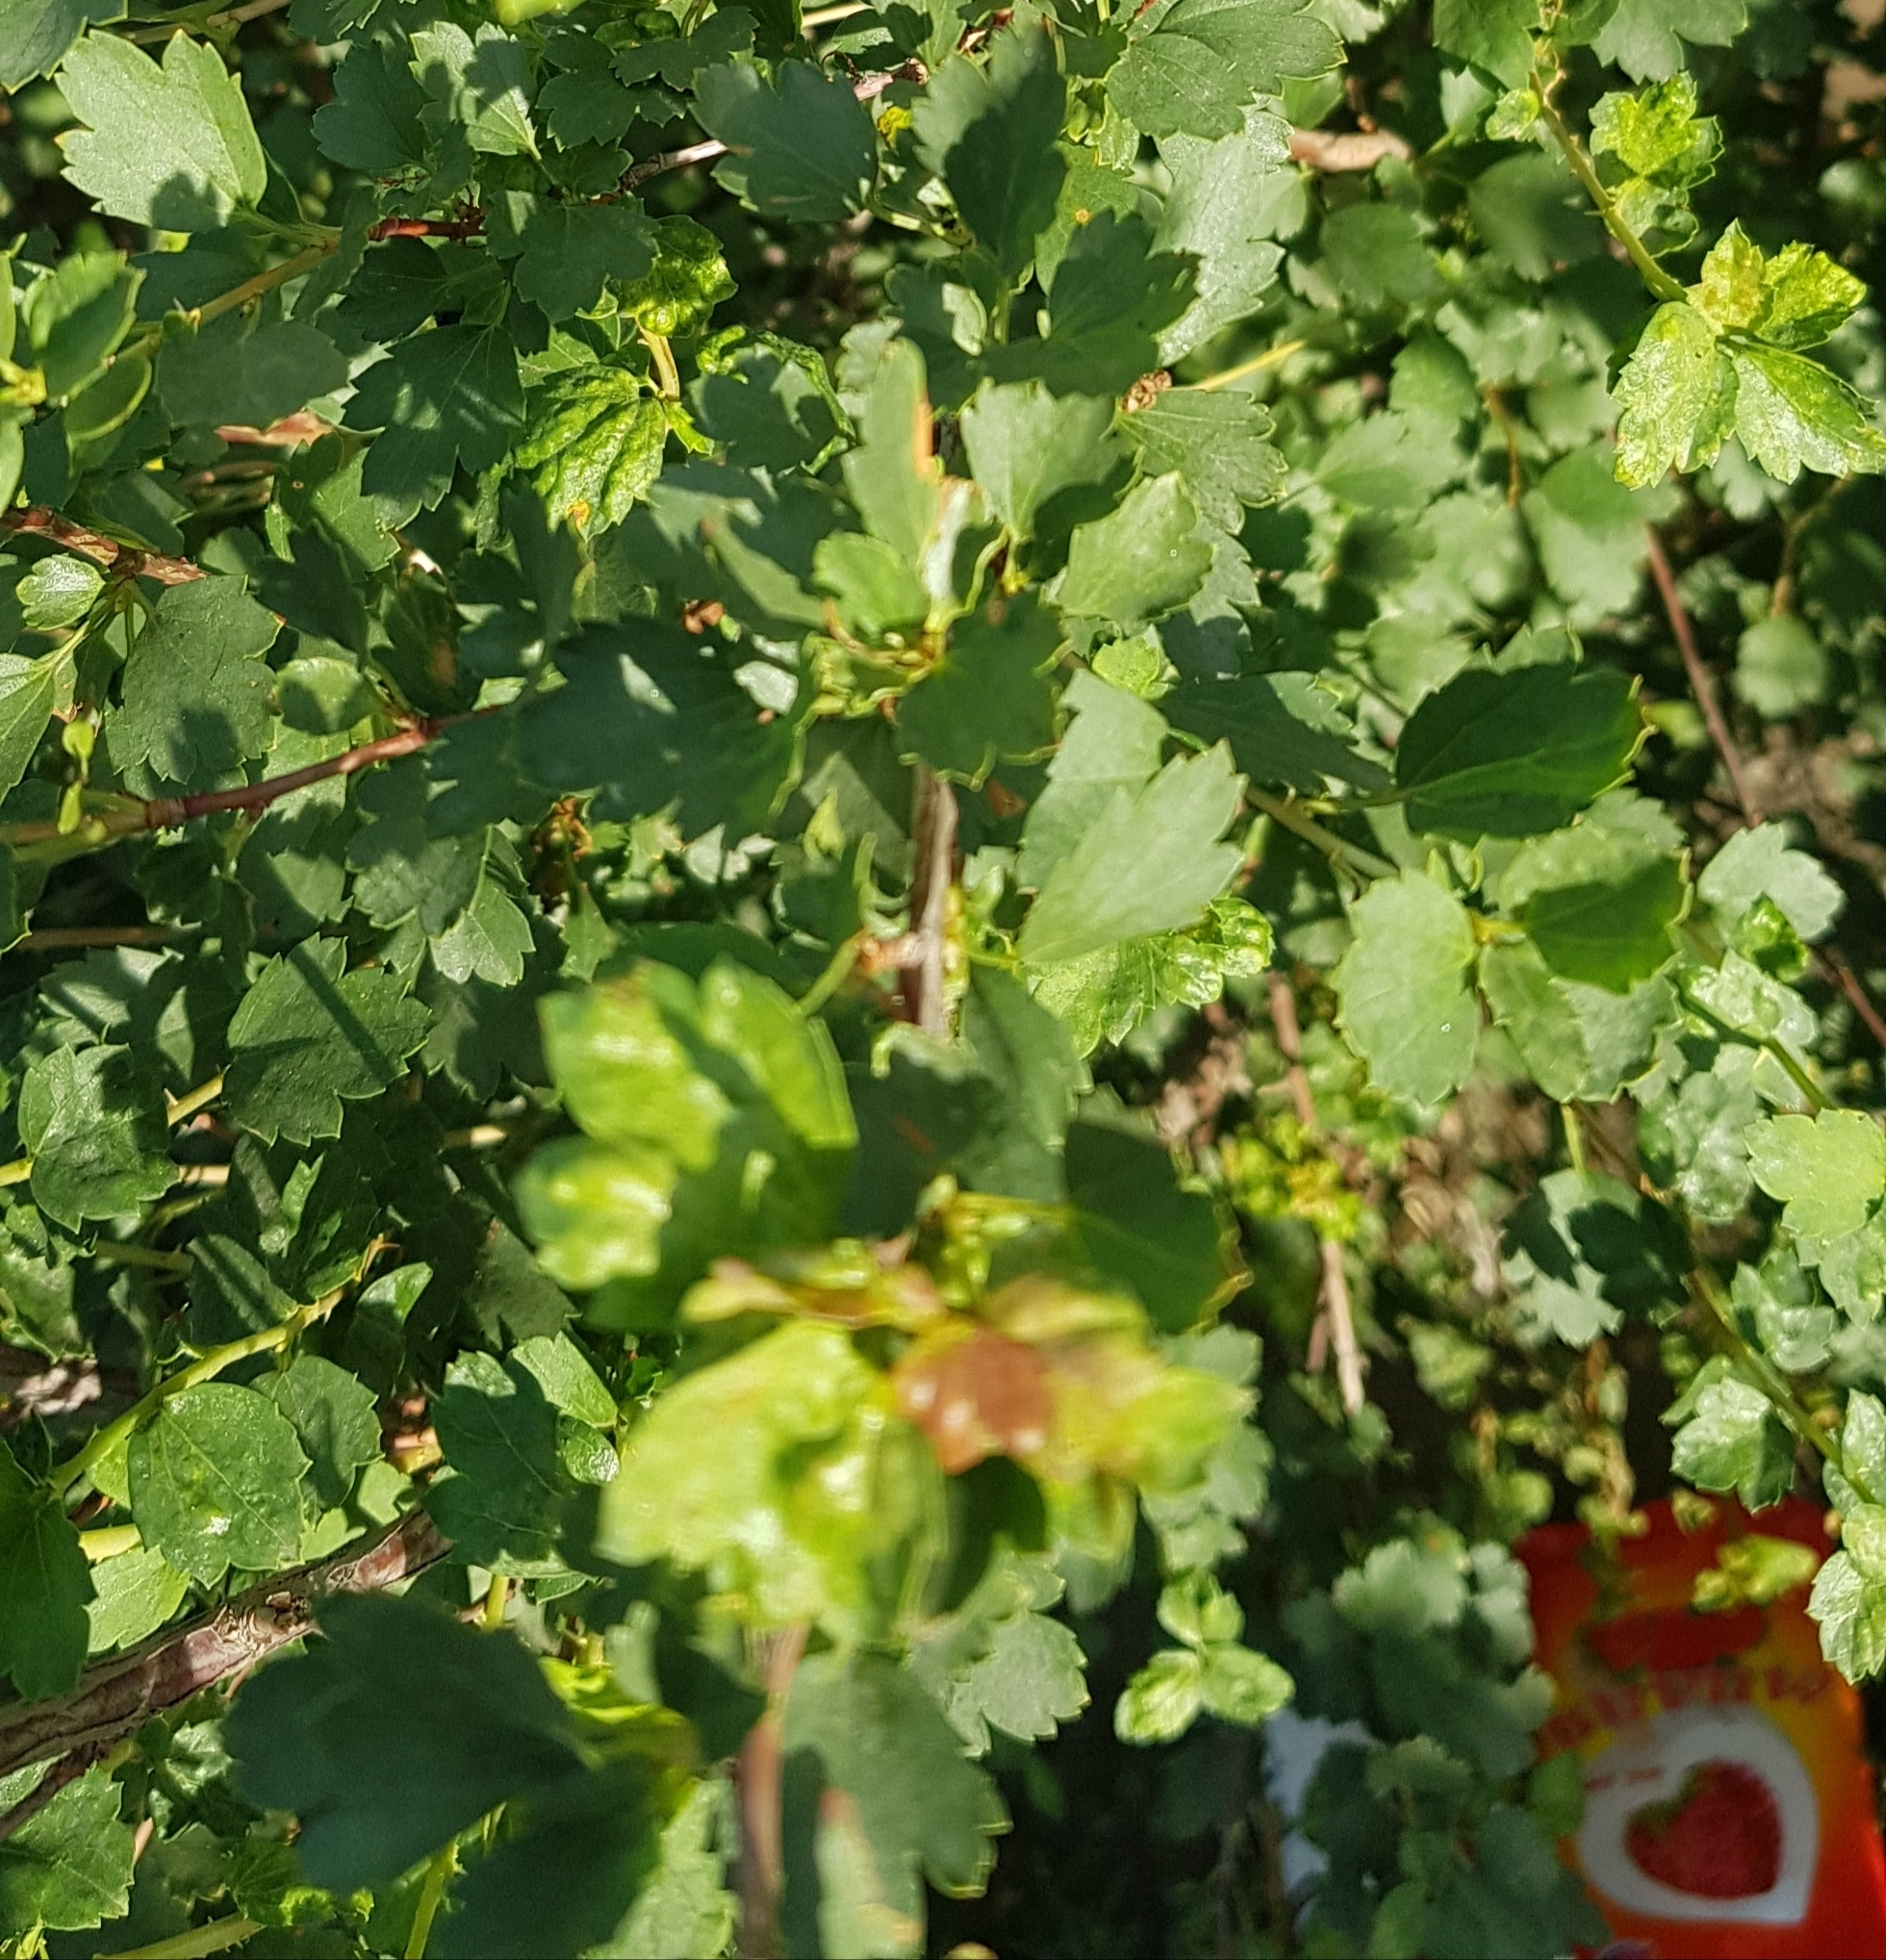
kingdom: Plantae
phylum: Tracheophyta
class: Magnoliopsida
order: Saxifragales
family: Grossulariaceae
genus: Ribes
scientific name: Ribes diacanthum
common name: Siberian currant
